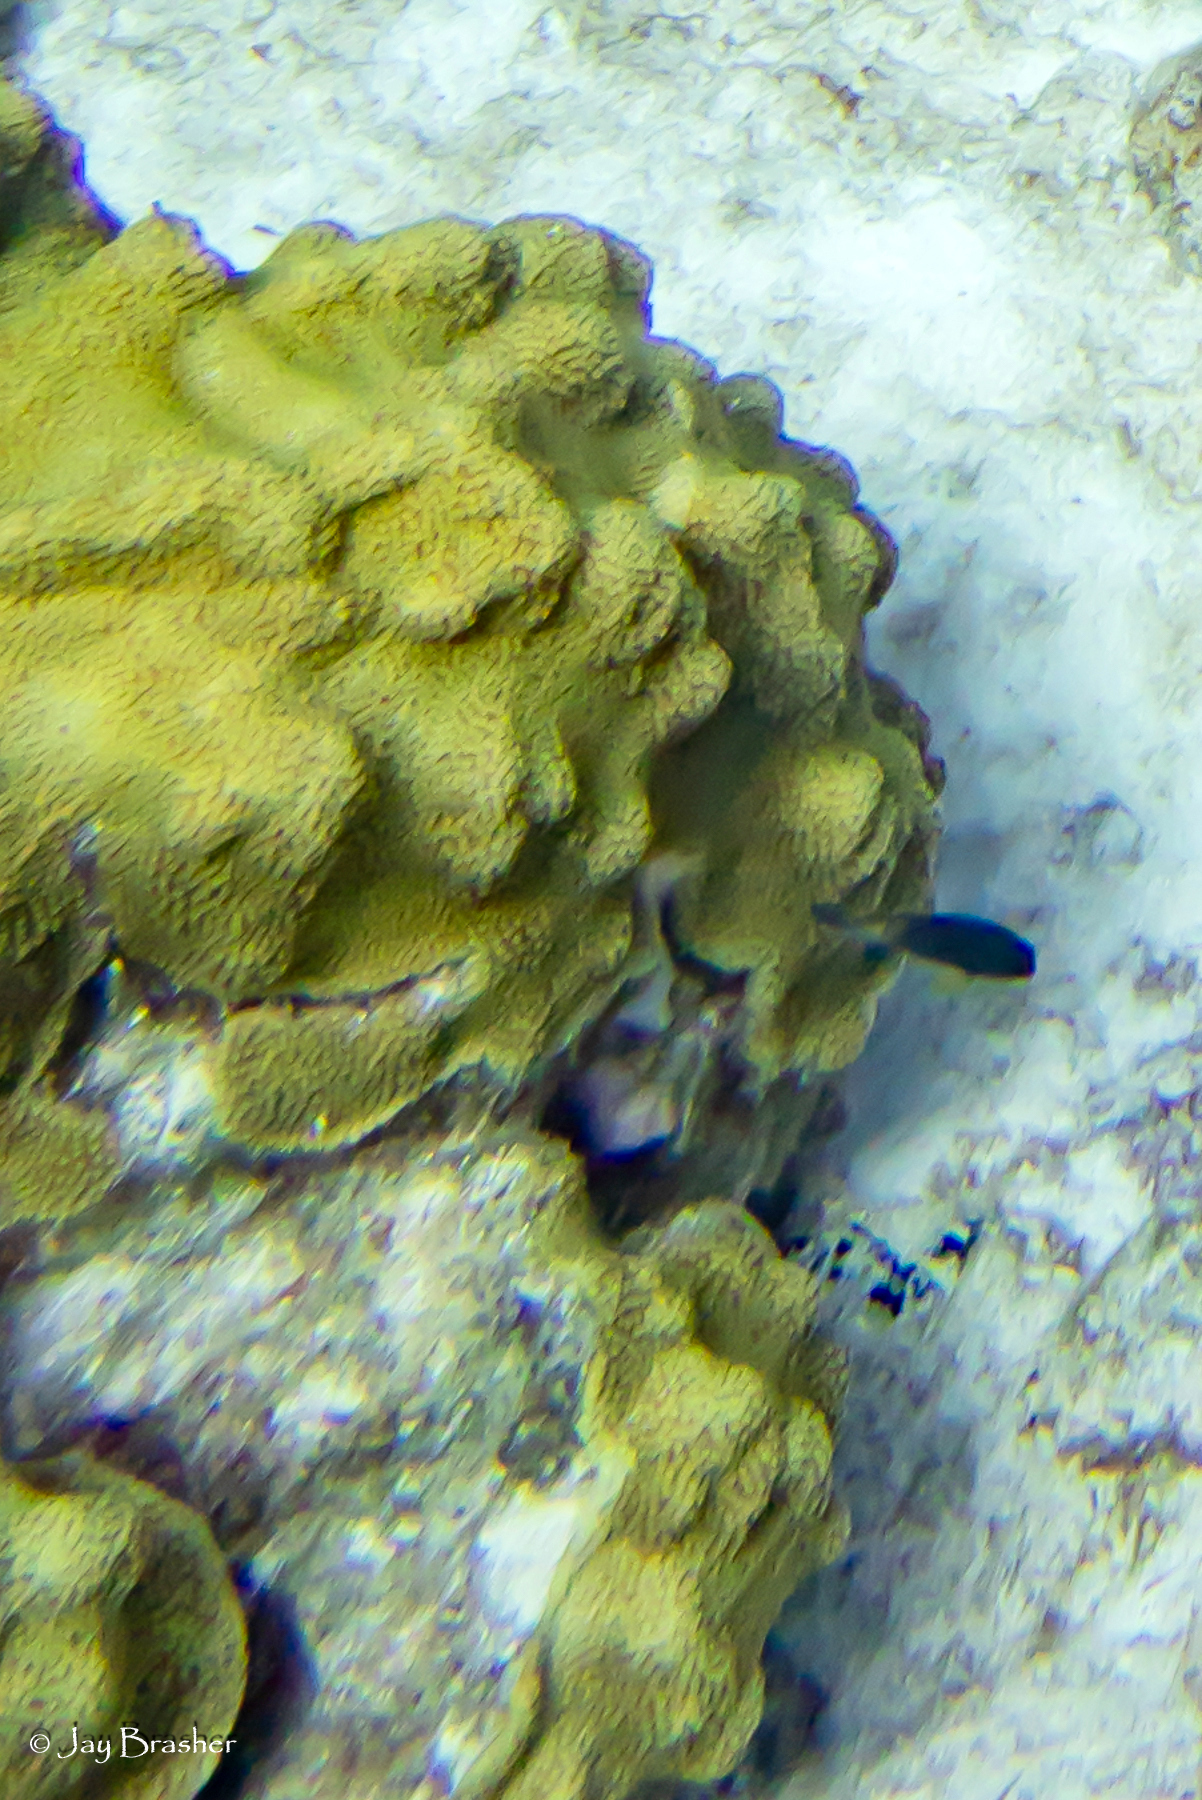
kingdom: Animalia
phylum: Cnidaria
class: Anthozoa
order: Scleractinia
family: Merulinidae
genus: Orbicella
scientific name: Orbicella faveolata
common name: Mountainous star coral
